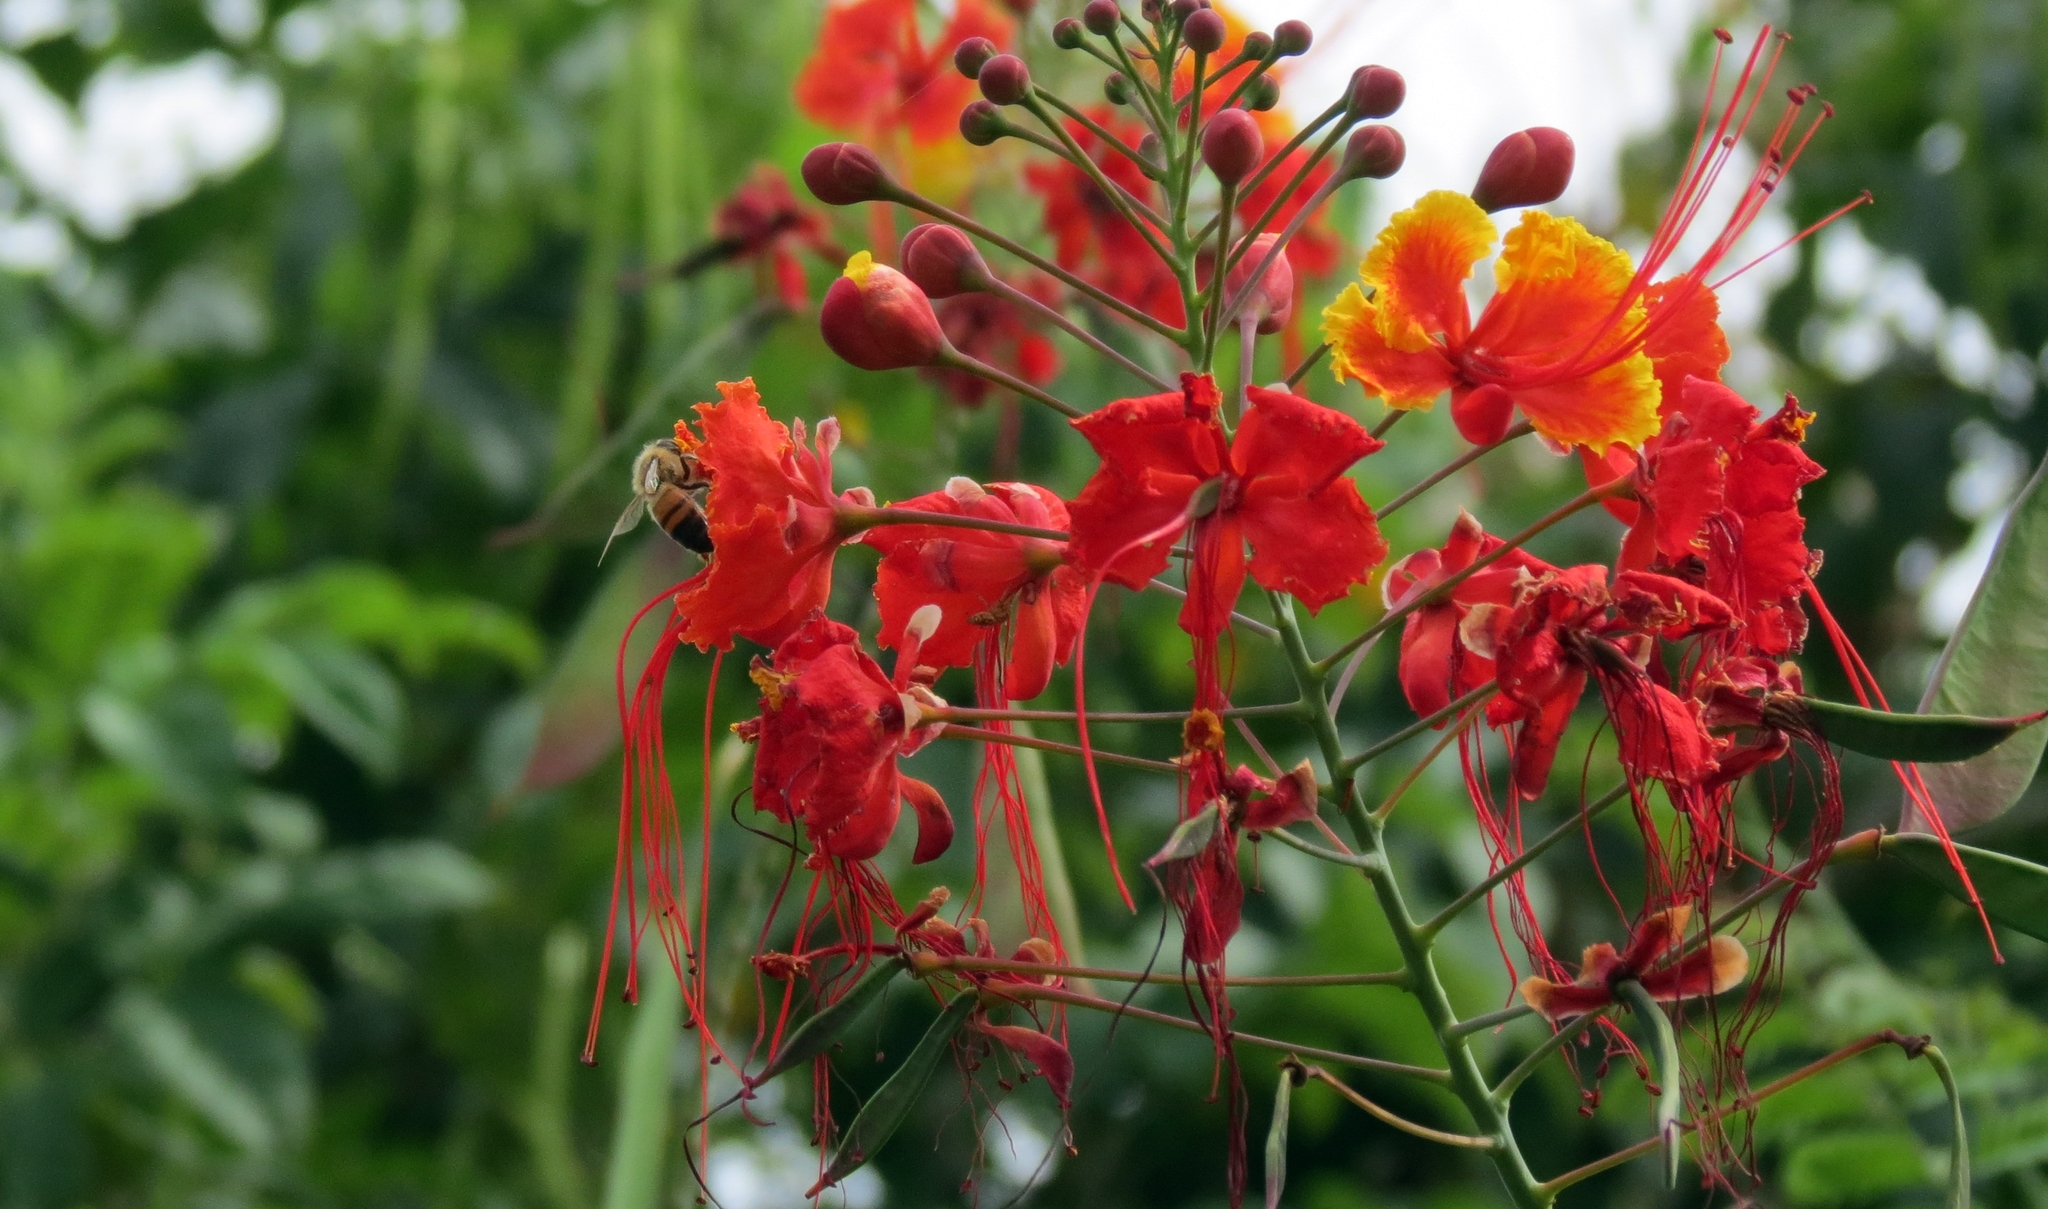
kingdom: Animalia
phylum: Arthropoda
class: Insecta
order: Hymenoptera
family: Apidae
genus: Apis
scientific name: Apis mellifera
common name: Honey bee
